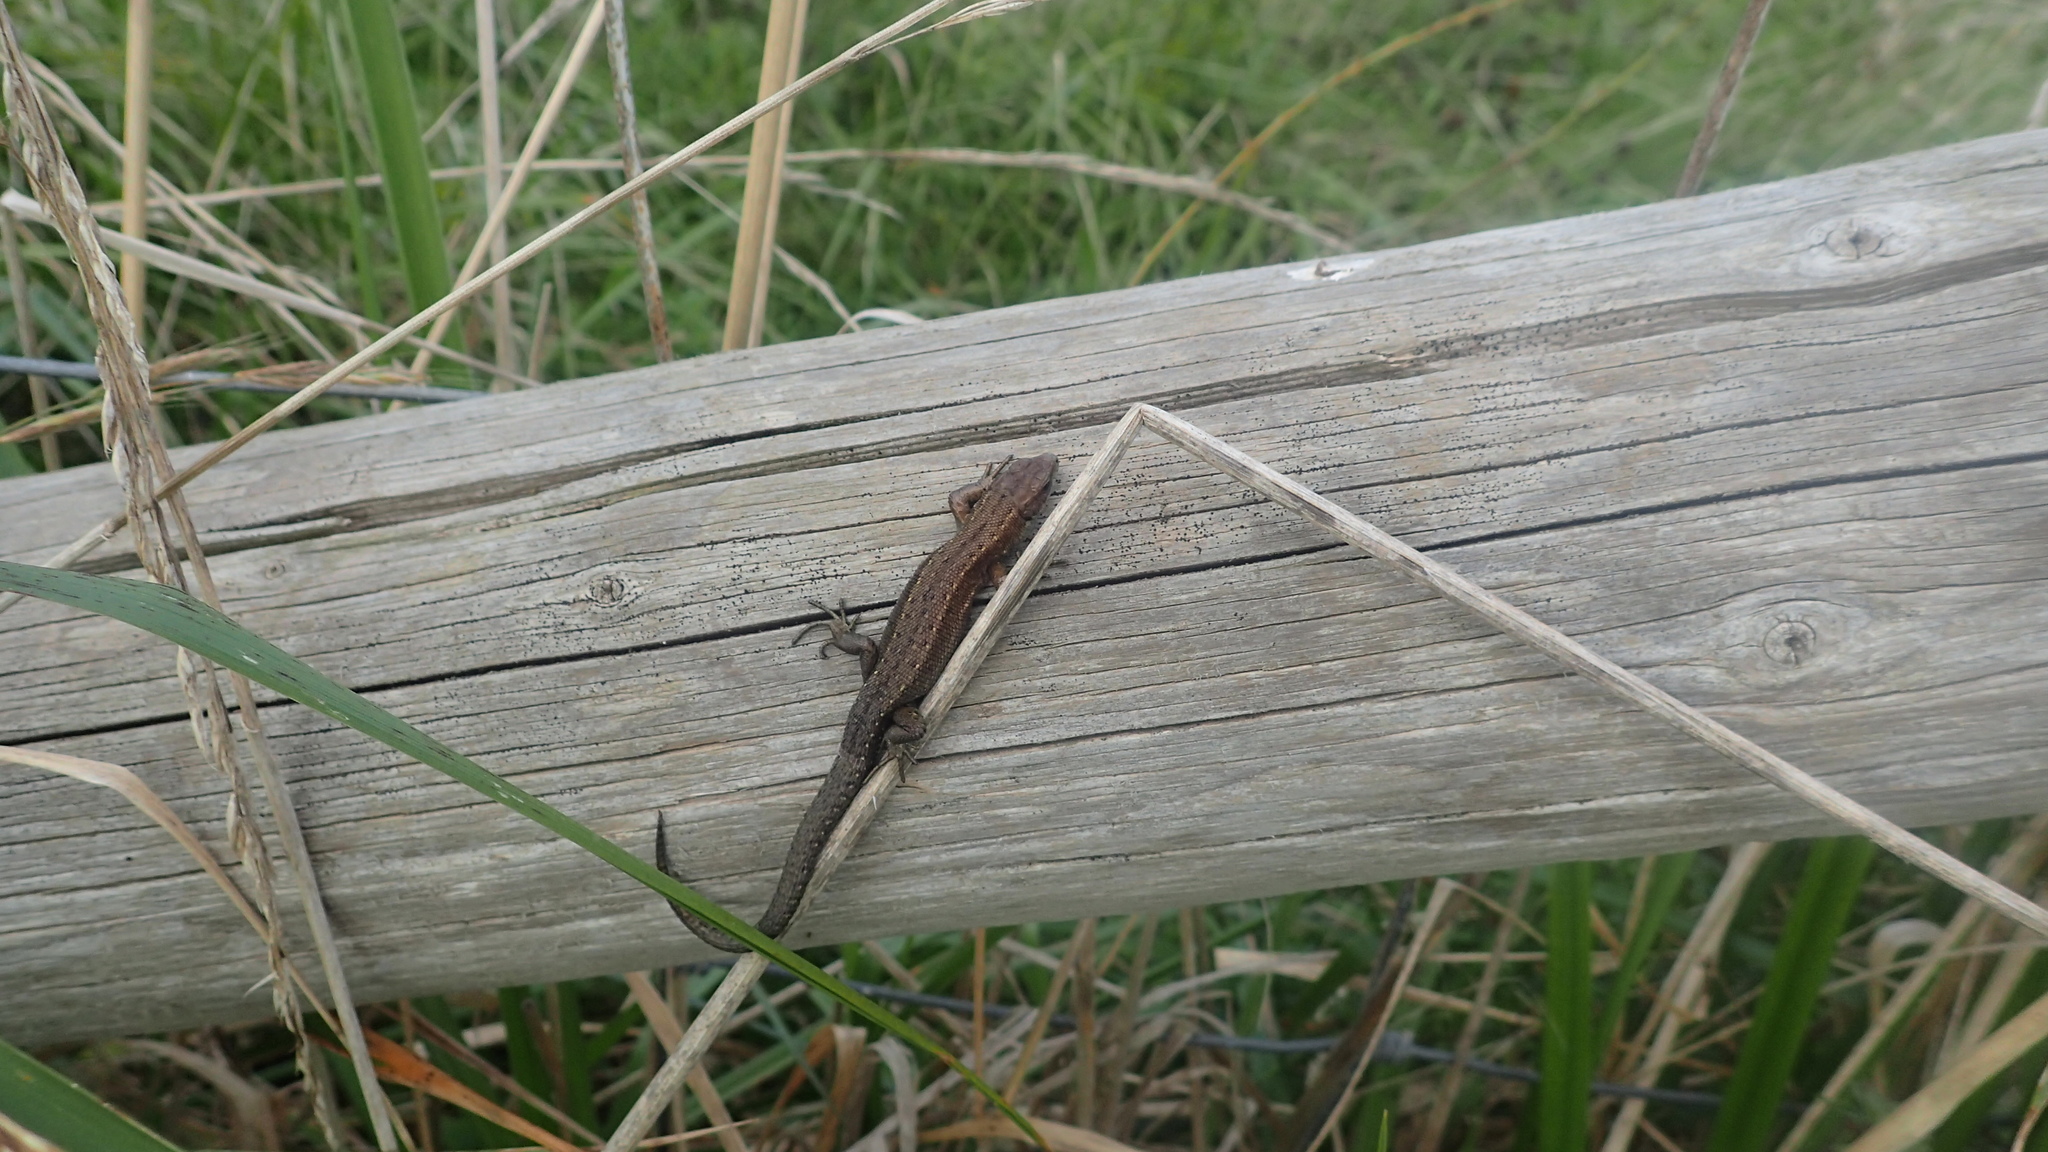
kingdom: Animalia
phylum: Chordata
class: Squamata
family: Lacertidae
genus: Zootoca
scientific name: Zootoca vivipara
